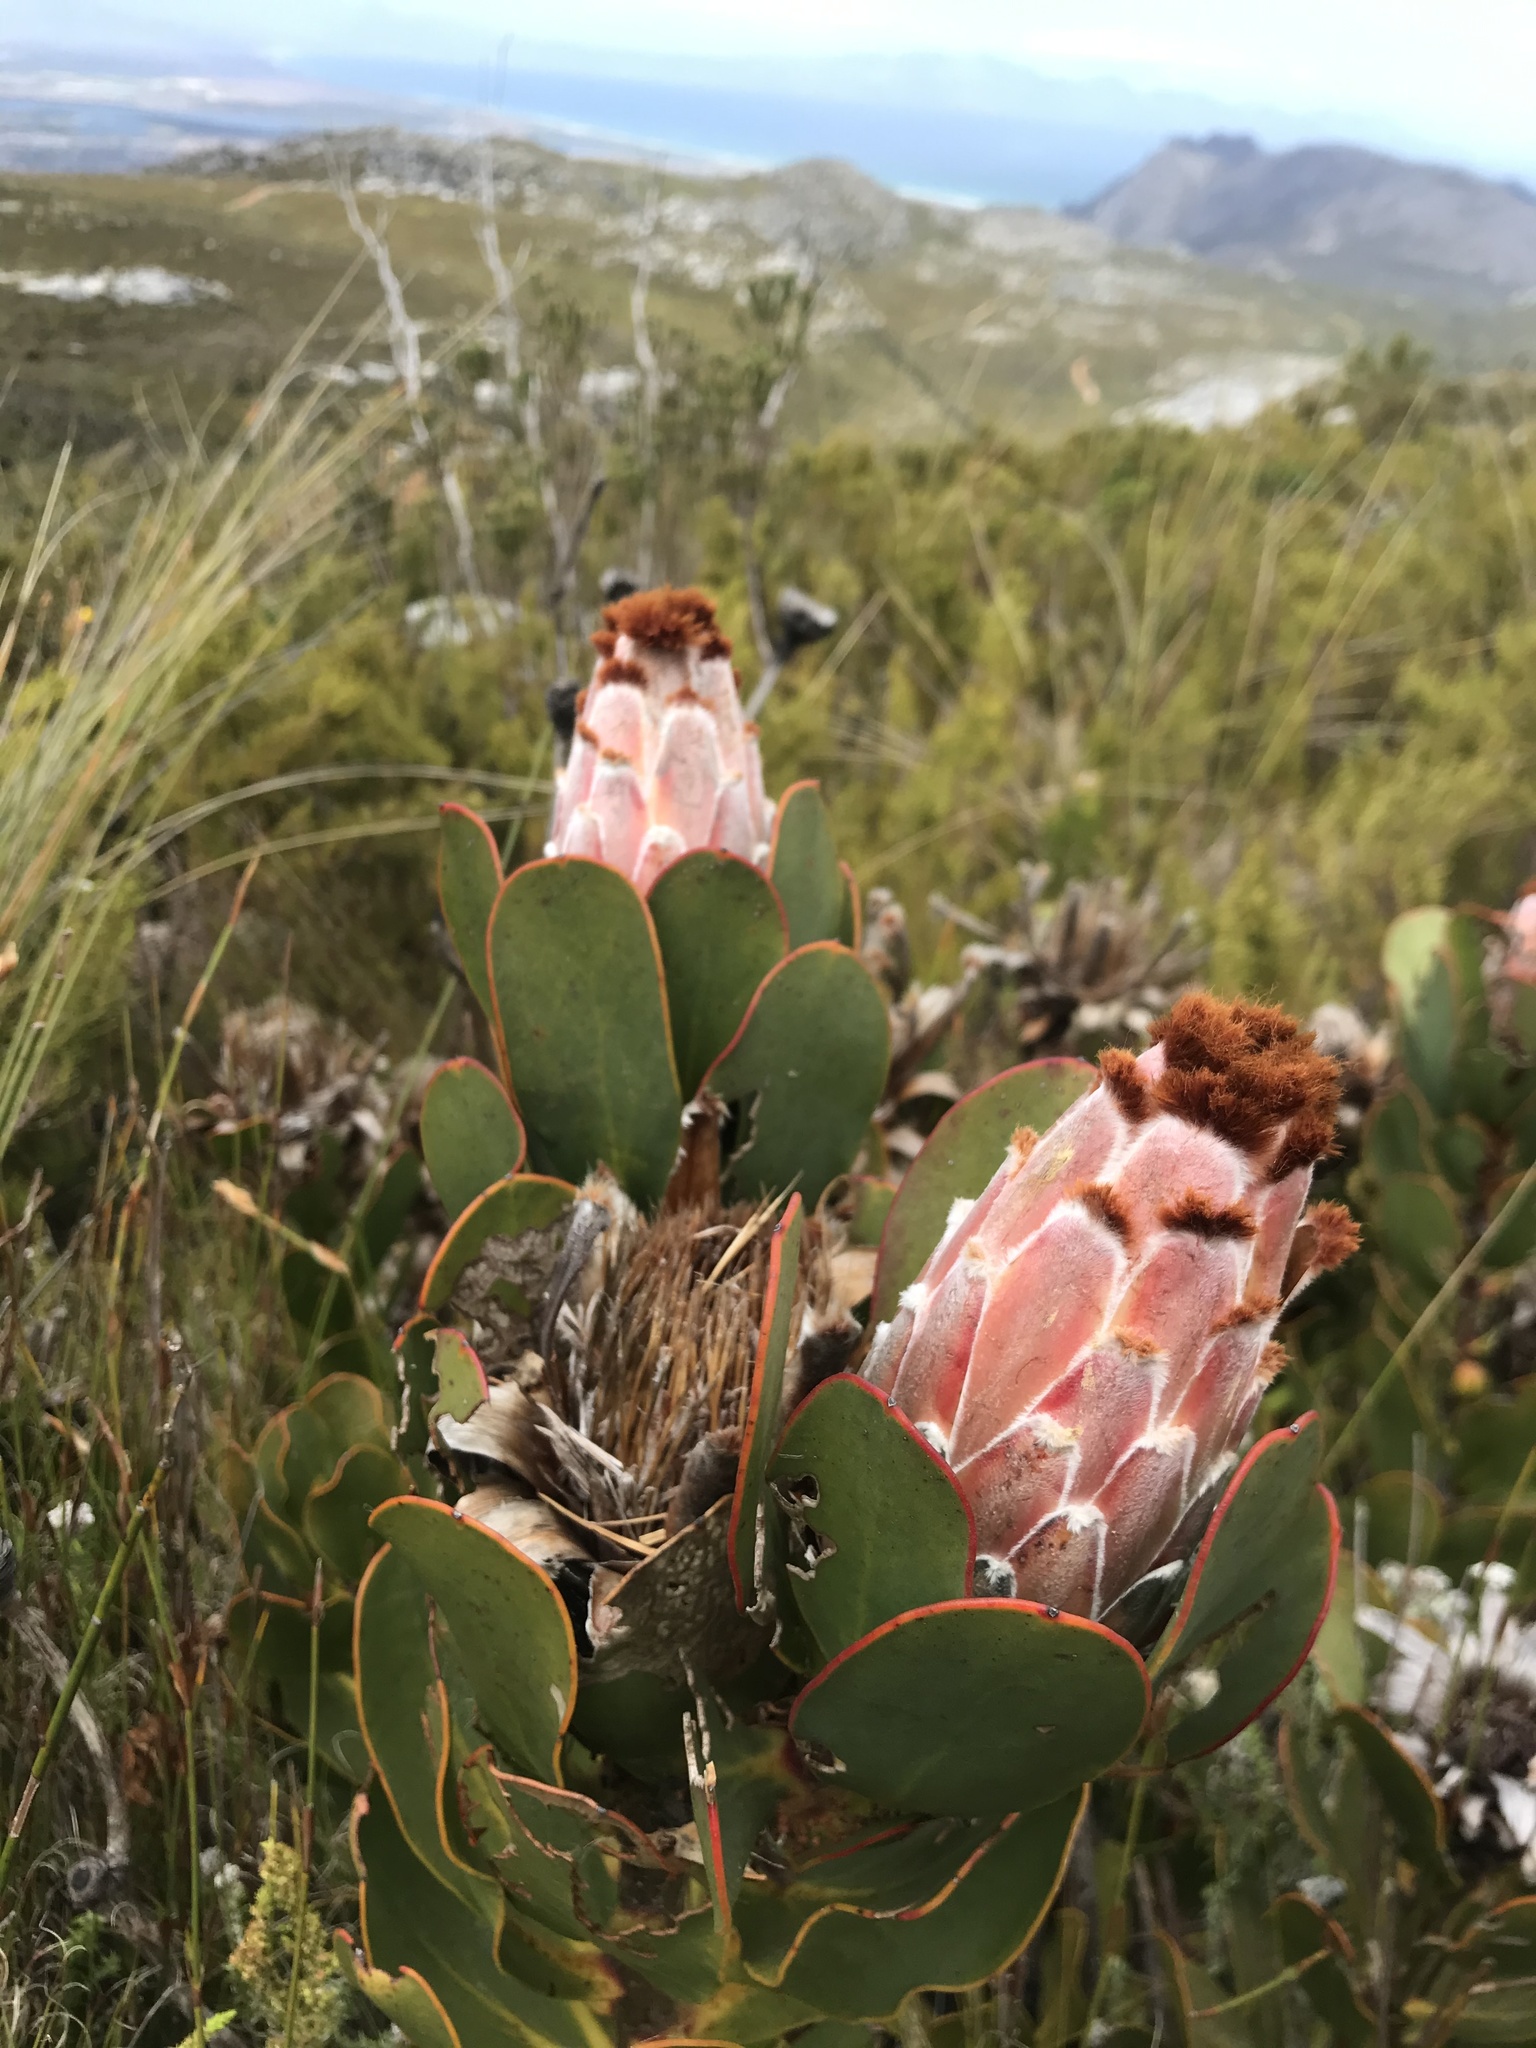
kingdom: Plantae
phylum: Tracheophyta
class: Magnoliopsida
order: Proteales
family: Proteaceae
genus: Protea
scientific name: Protea speciosa
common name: Brown-beard sugarbush
